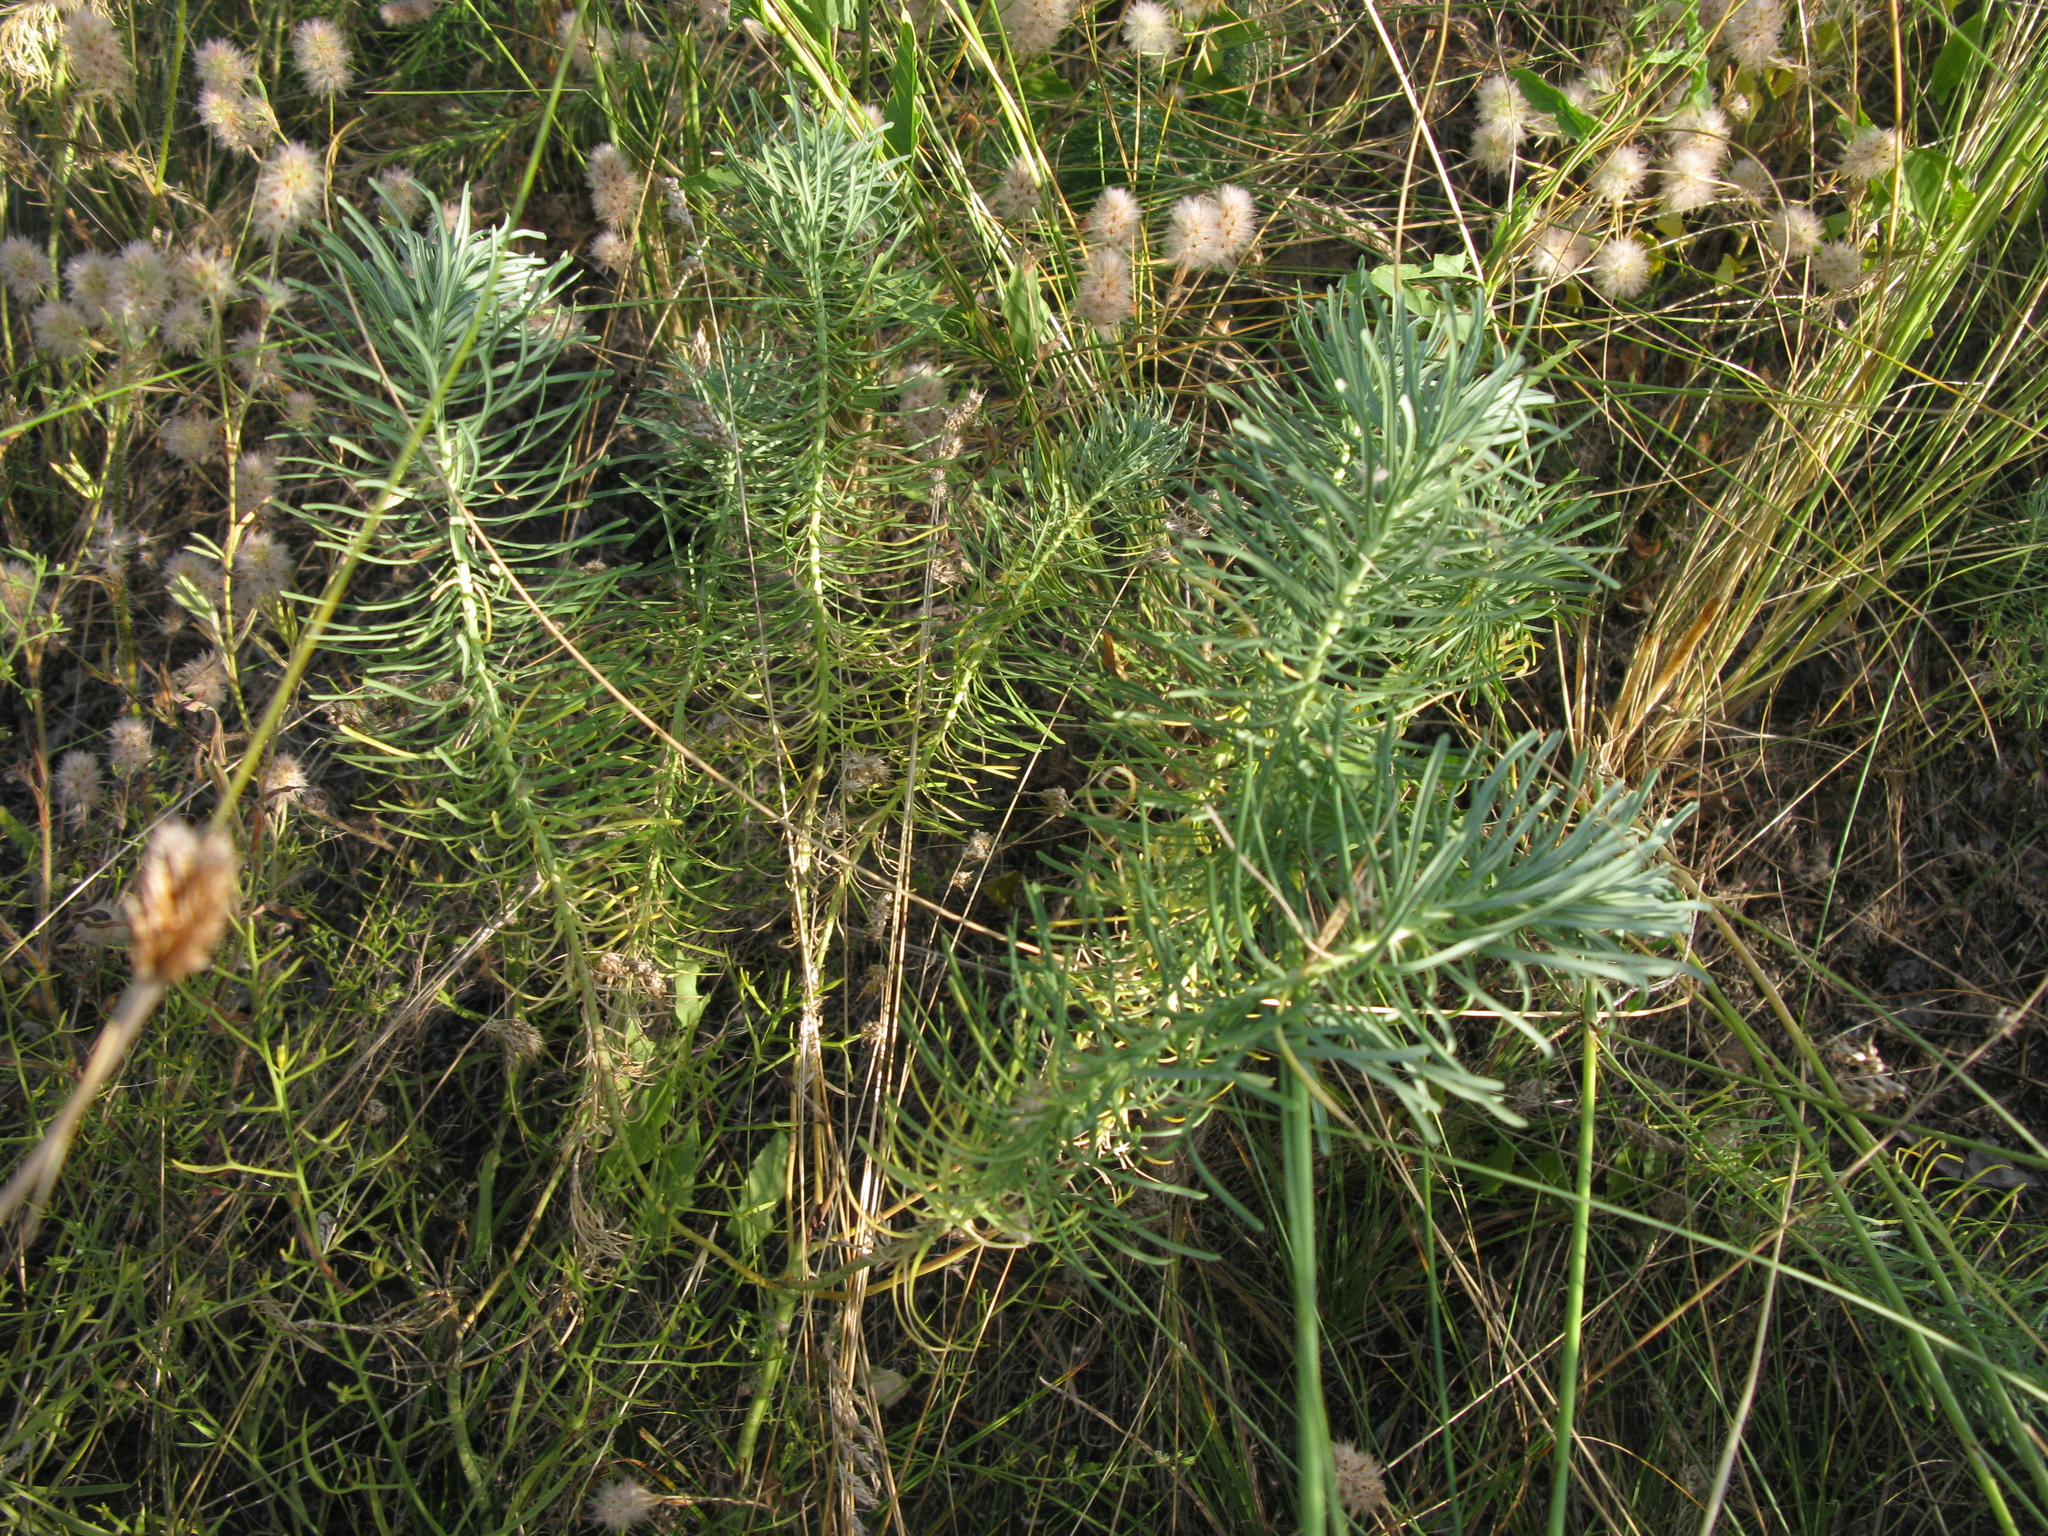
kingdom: Plantae
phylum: Tracheophyta
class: Magnoliopsida
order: Malpighiales
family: Euphorbiaceae
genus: Euphorbia
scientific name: Euphorbia cyparissias
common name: Cypress spurge
